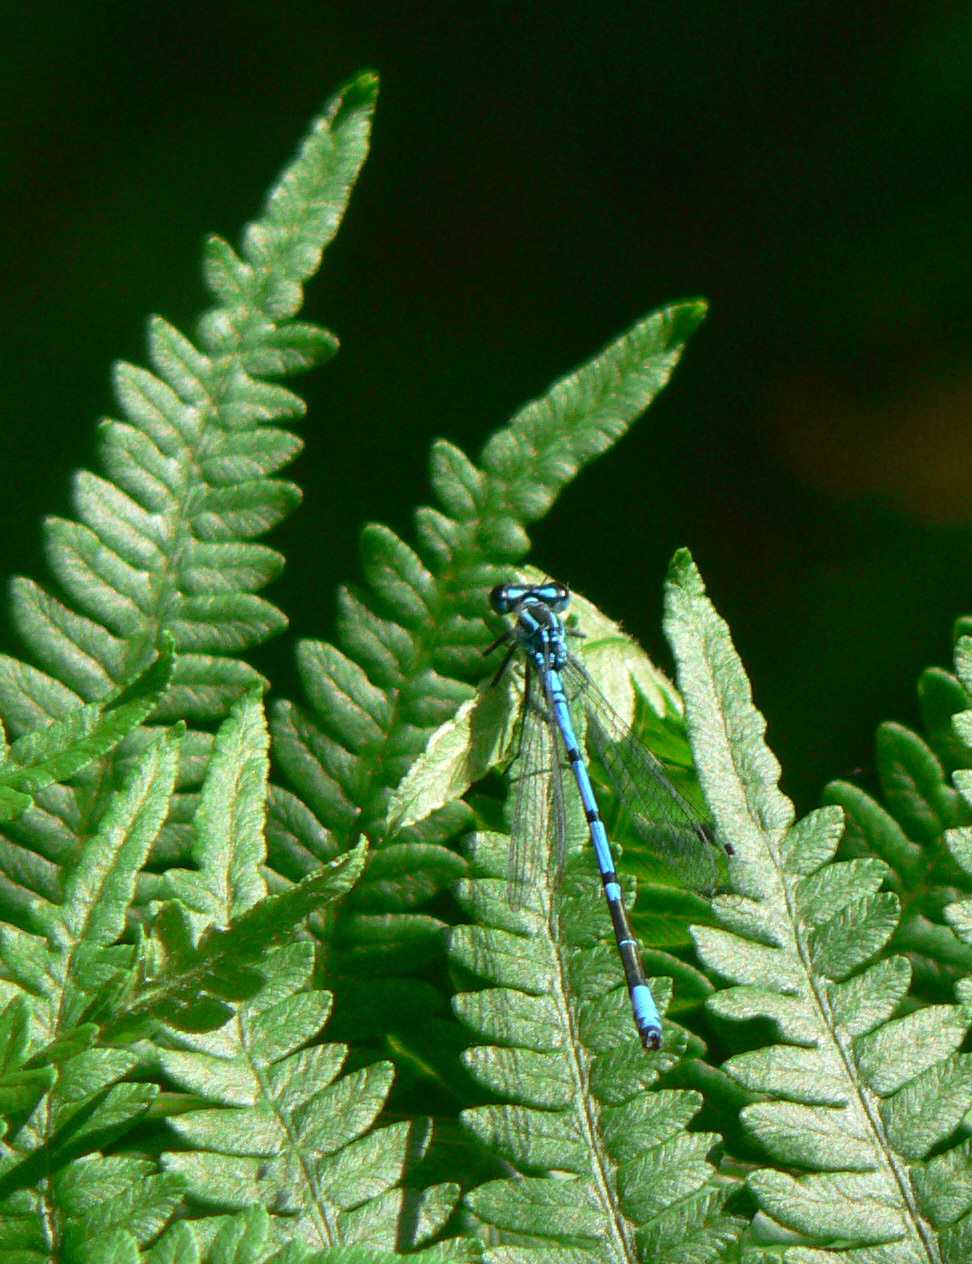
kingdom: Animalia
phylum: Arthropoda
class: Insecta
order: Odonata
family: Coenagrionidae
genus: Coenagrion
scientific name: Coenagrion puella
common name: Azure damselfly
